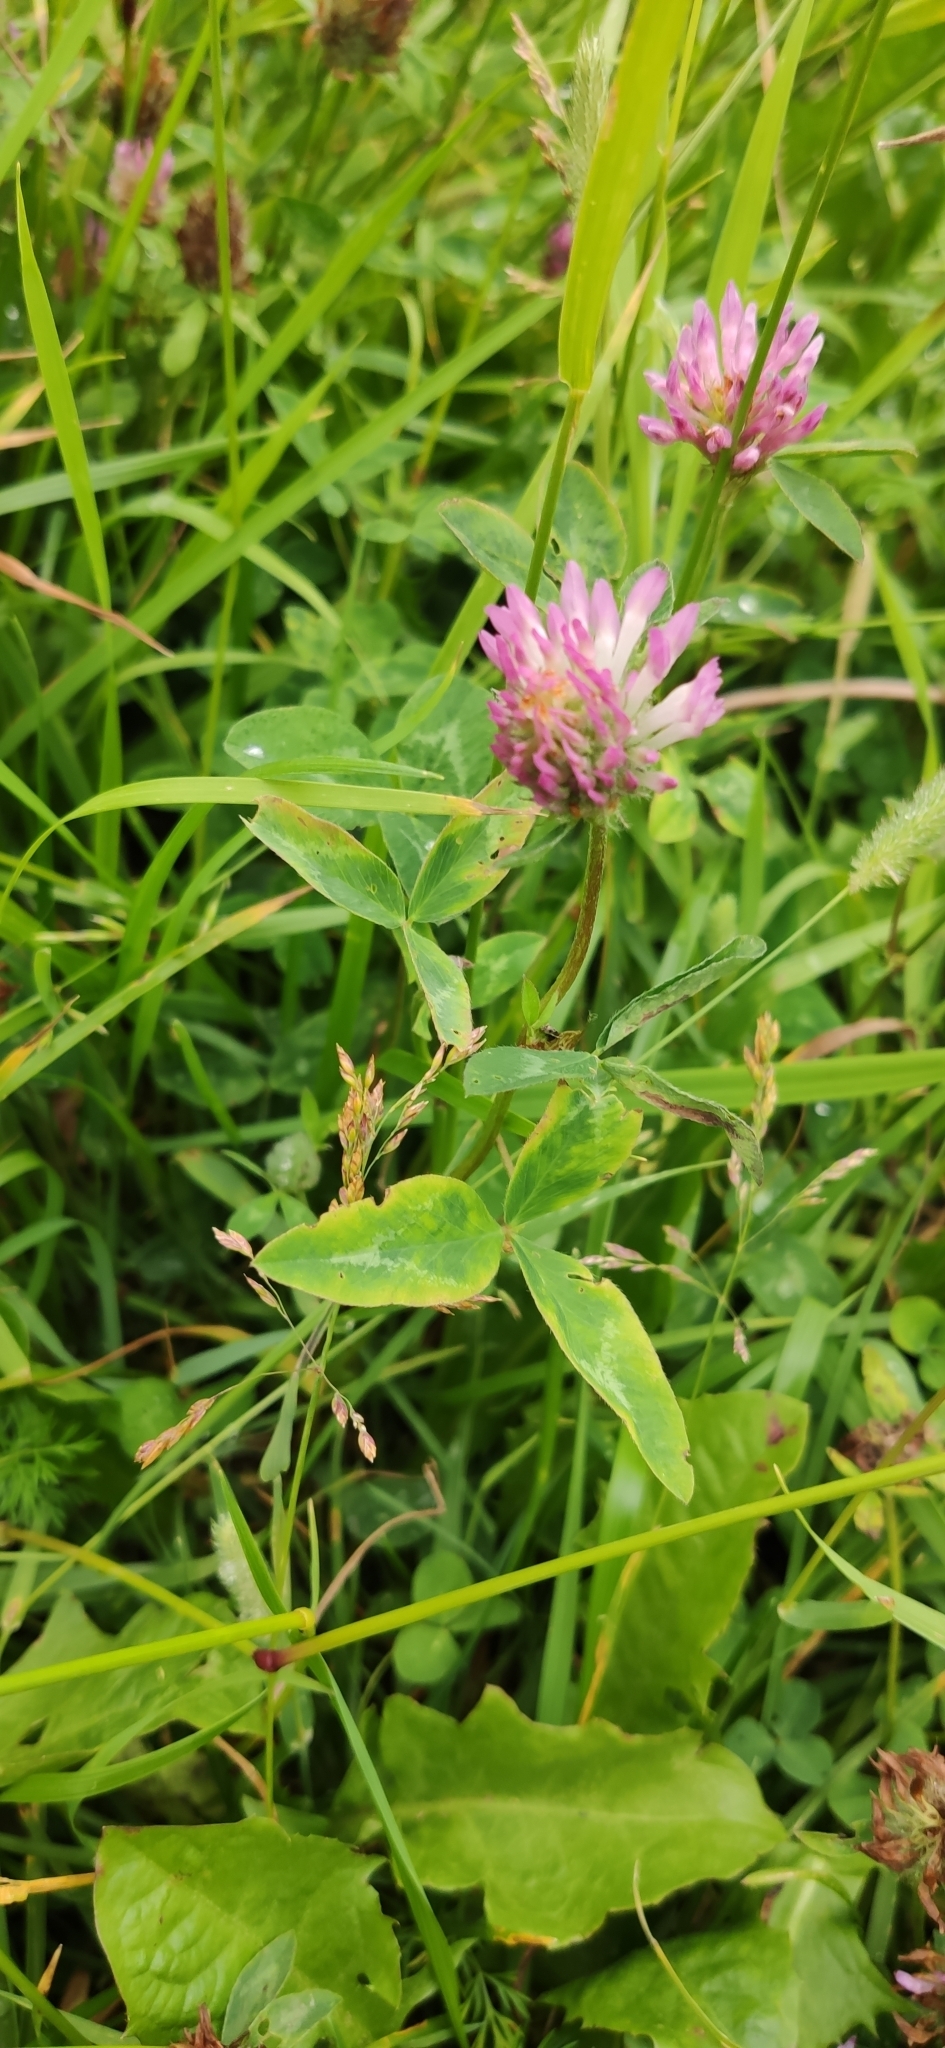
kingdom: Plantae
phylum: Tracheophyta
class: Magnoliopsida
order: Fabales
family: Fabaceae
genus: Trifolium
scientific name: Trifolium pratense
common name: Red clover
